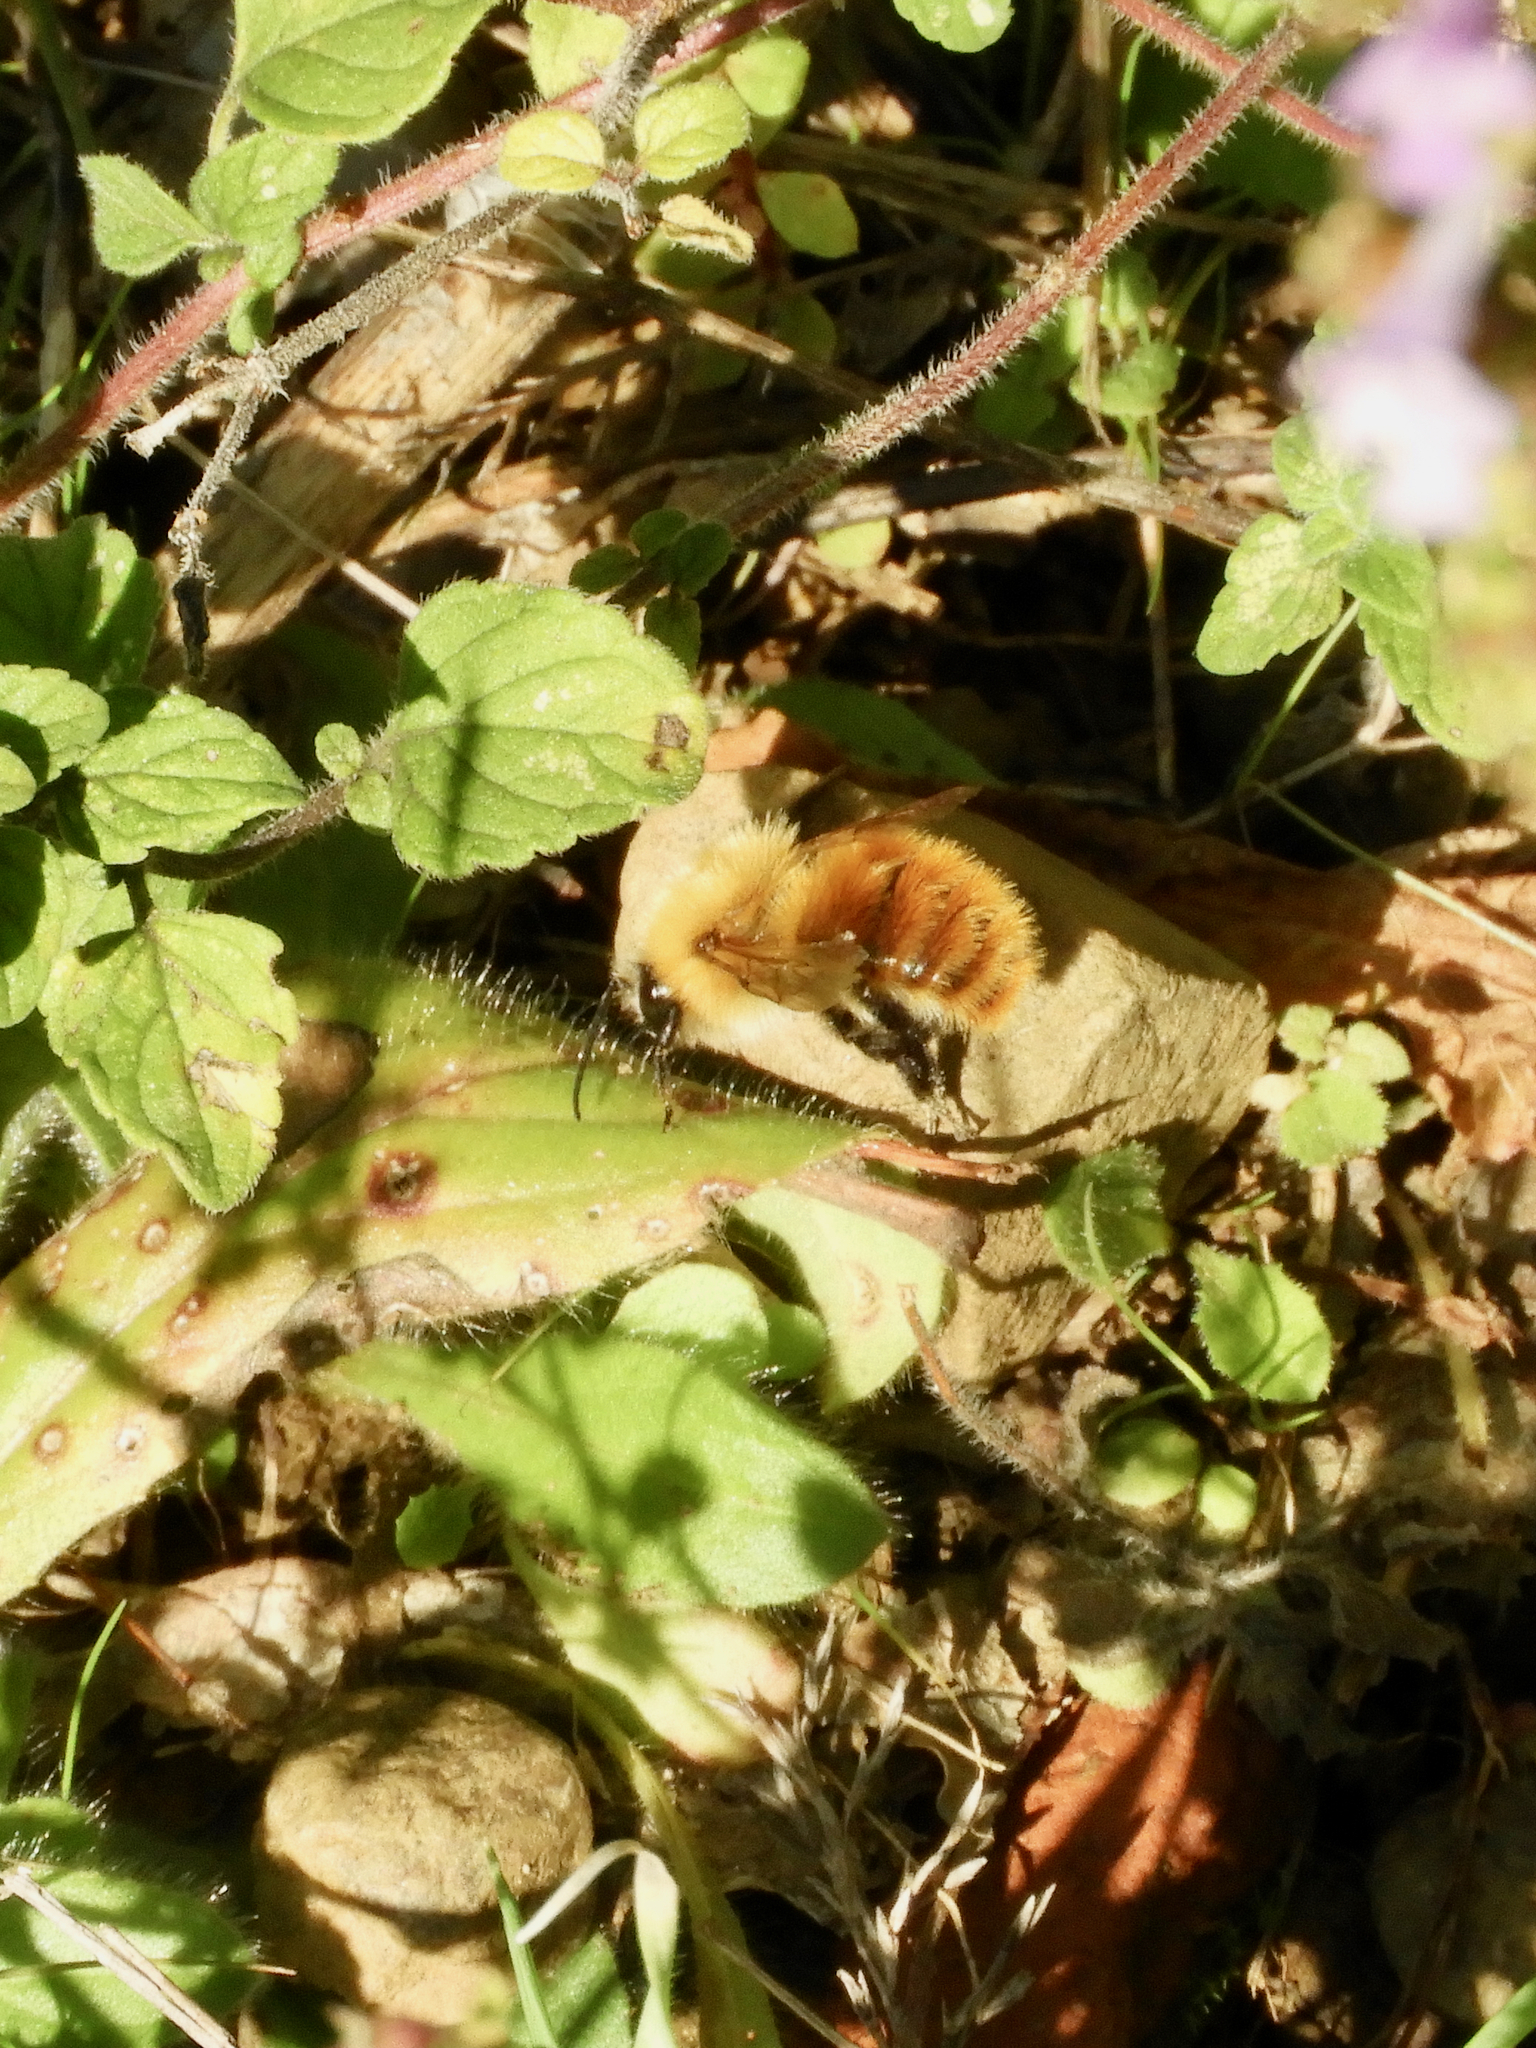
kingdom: Animalia
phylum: Arthropoda
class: Insecta
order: Hymenoptera
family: Apidae
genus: Bombus
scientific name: Bombus pascuorum
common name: Common carder bee
